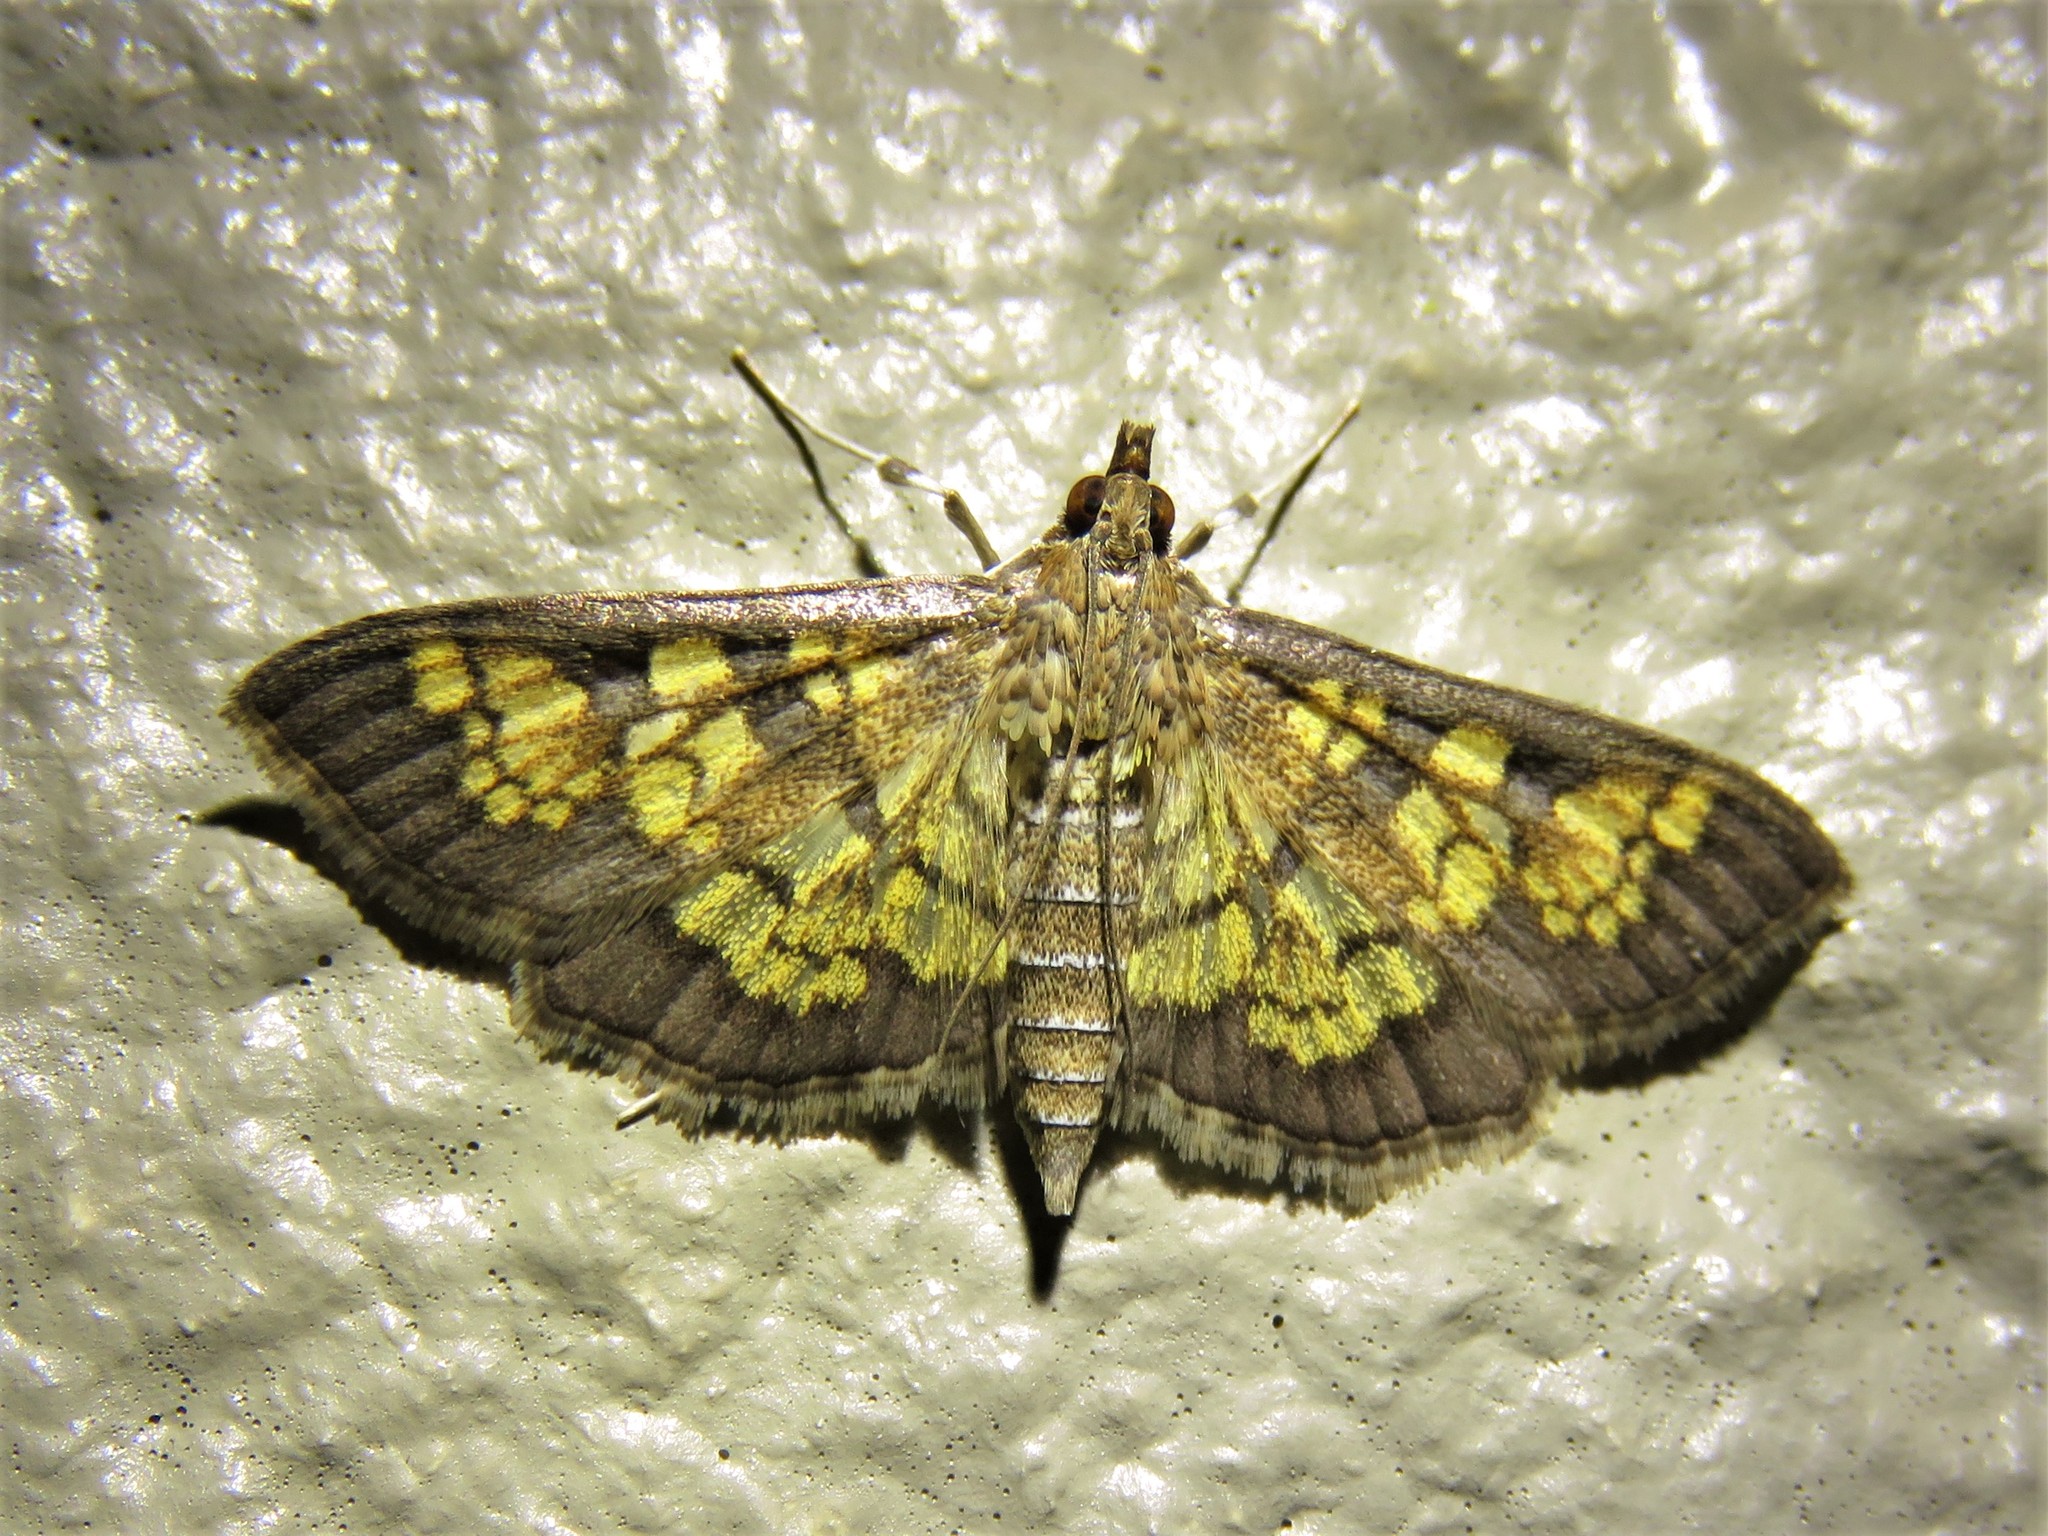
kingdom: Animalia
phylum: Arthropoda
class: Insecta
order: Lepidoptera
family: Crambidae
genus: Epipagis
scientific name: Epipagis adipaloides
